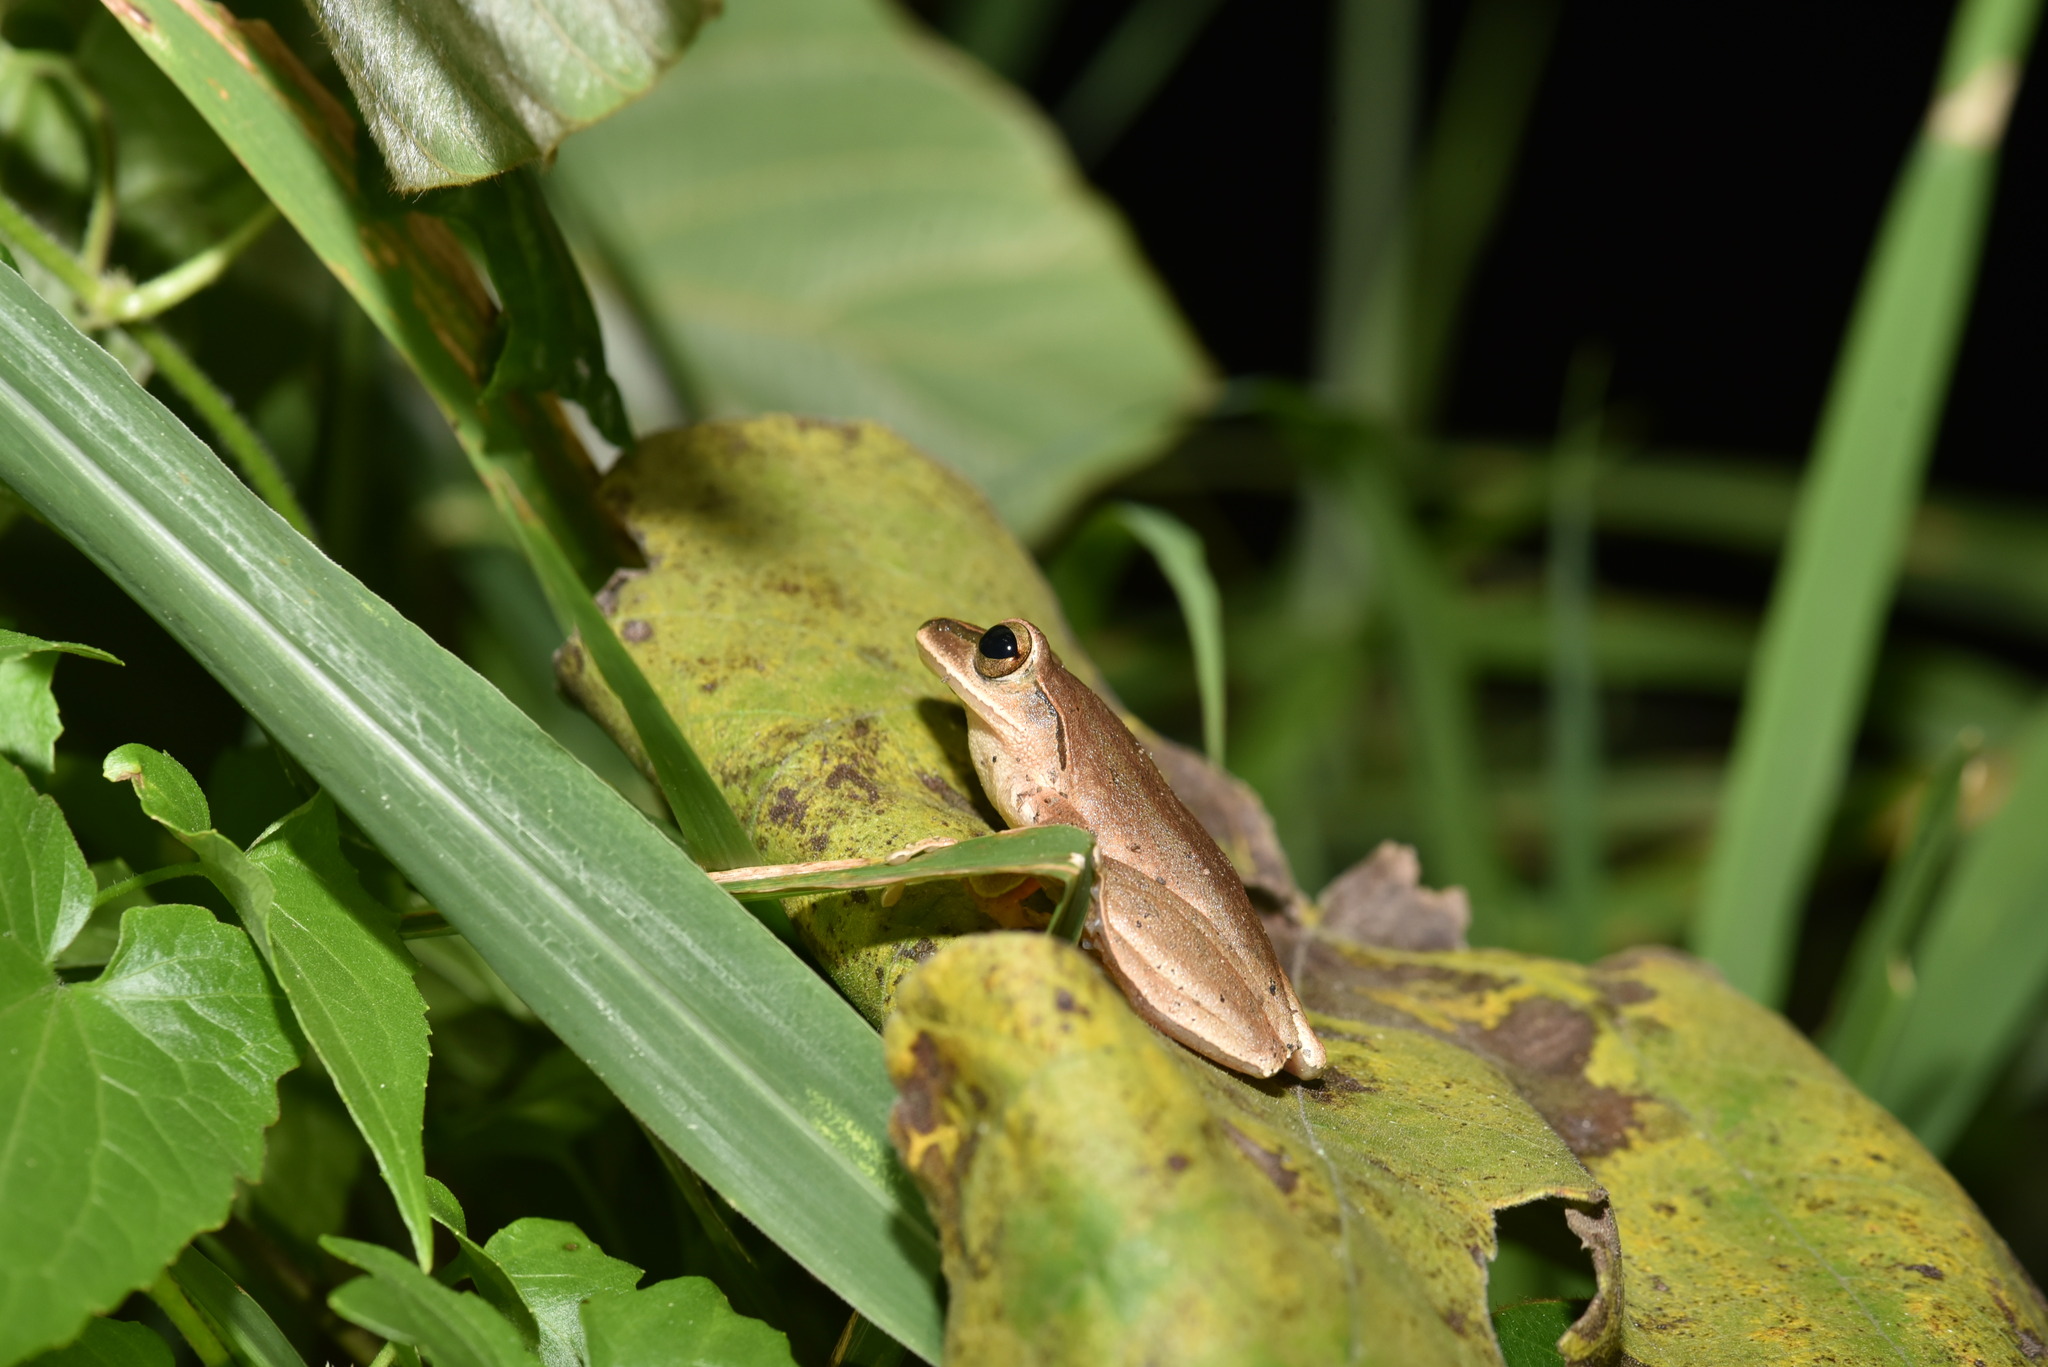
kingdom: Animalia
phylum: Chordata
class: Amphibia
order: Anura
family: Rhacophoridae
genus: Polypedates
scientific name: Polypedates braueri
